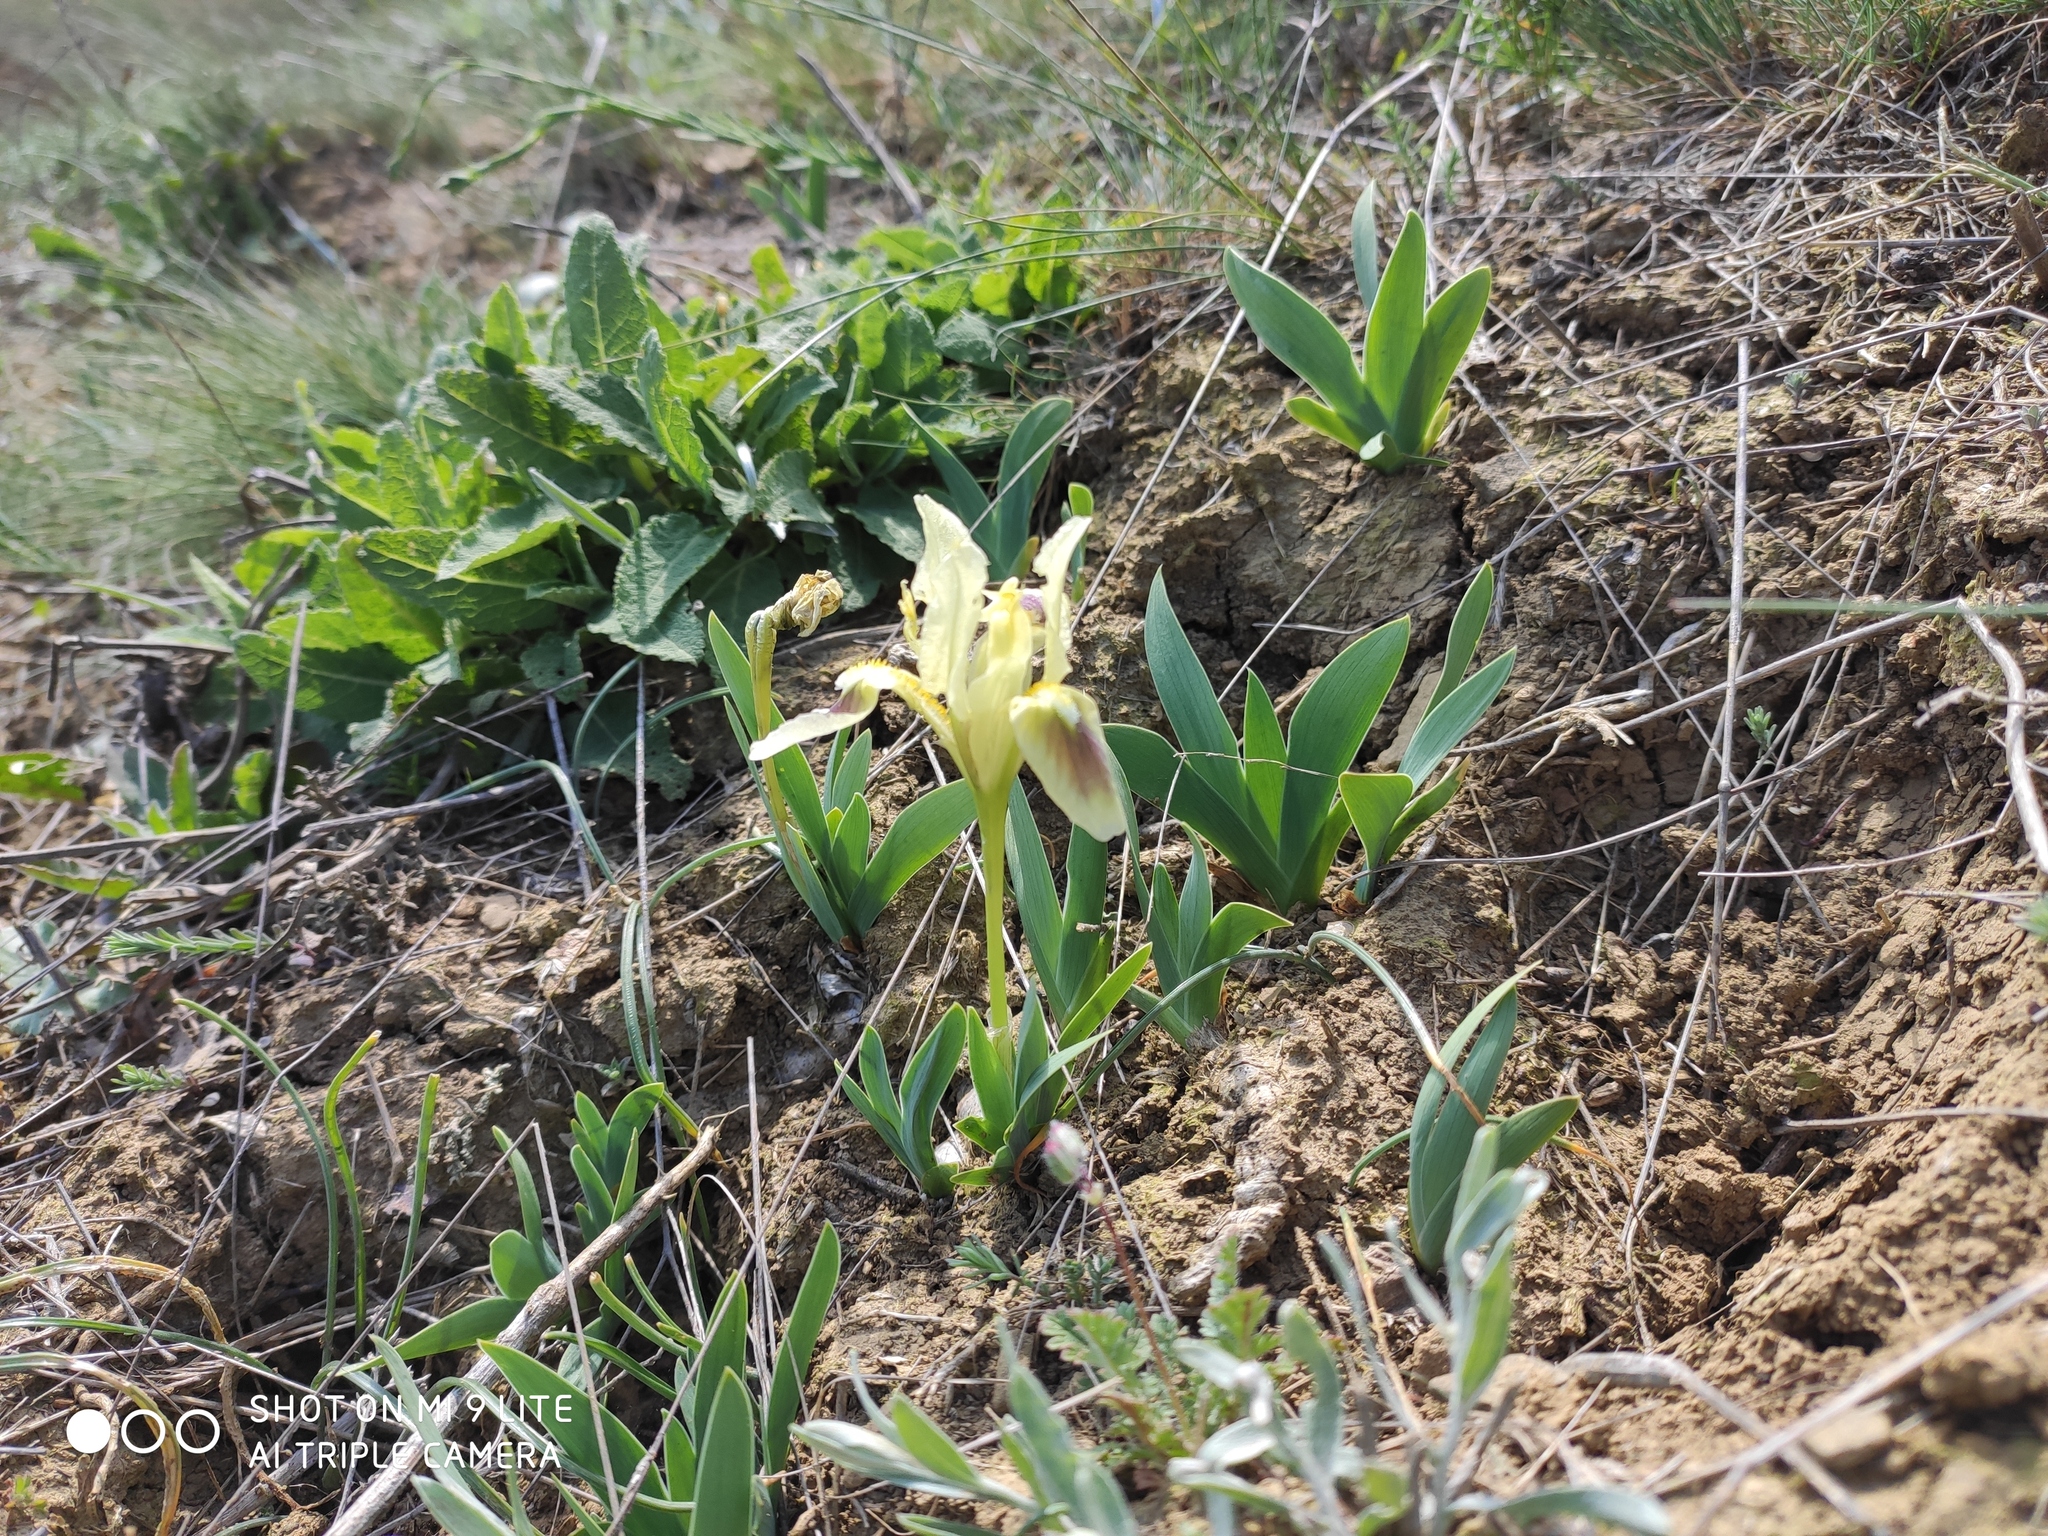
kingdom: Plantae
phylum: Tracheophyta
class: Liliopsida
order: Asparagales
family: Iridaceae
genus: Iris
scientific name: Iris pumila
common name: Dwarf iris
